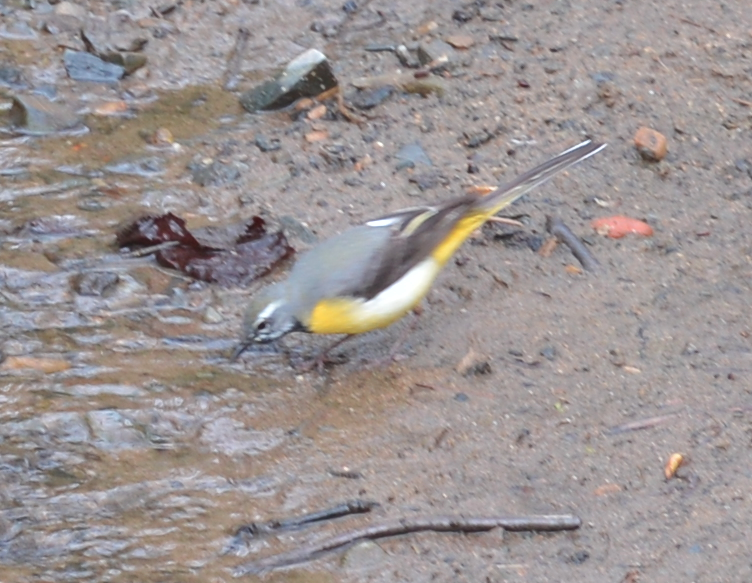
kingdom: Animalia
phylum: Chordata
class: Aves
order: Passeriformes
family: Motacillidae
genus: Motacilla
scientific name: Motacilla cinerea
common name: Grey wagtail
